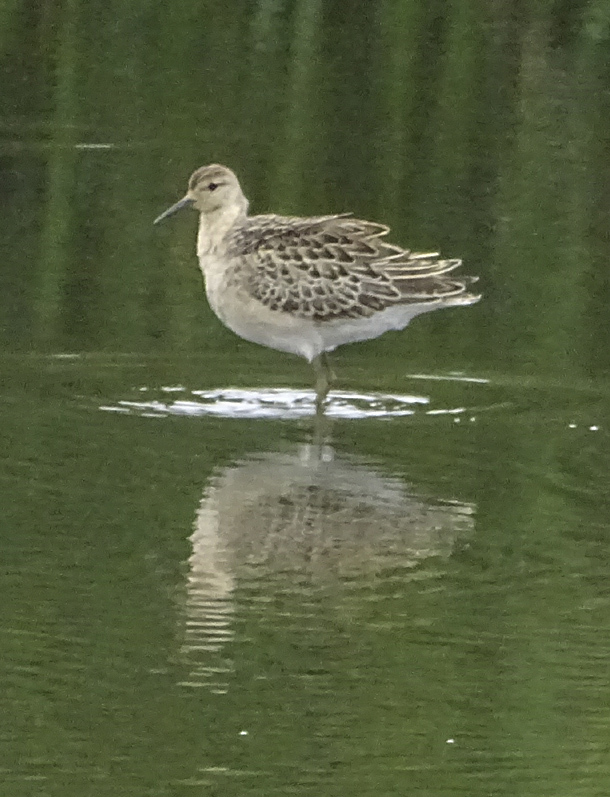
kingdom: Animalia
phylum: Chordata
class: Aves
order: Charadriiformes
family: Scolopacidae
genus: Calidris
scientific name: Calidris pugnax
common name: Ruff
